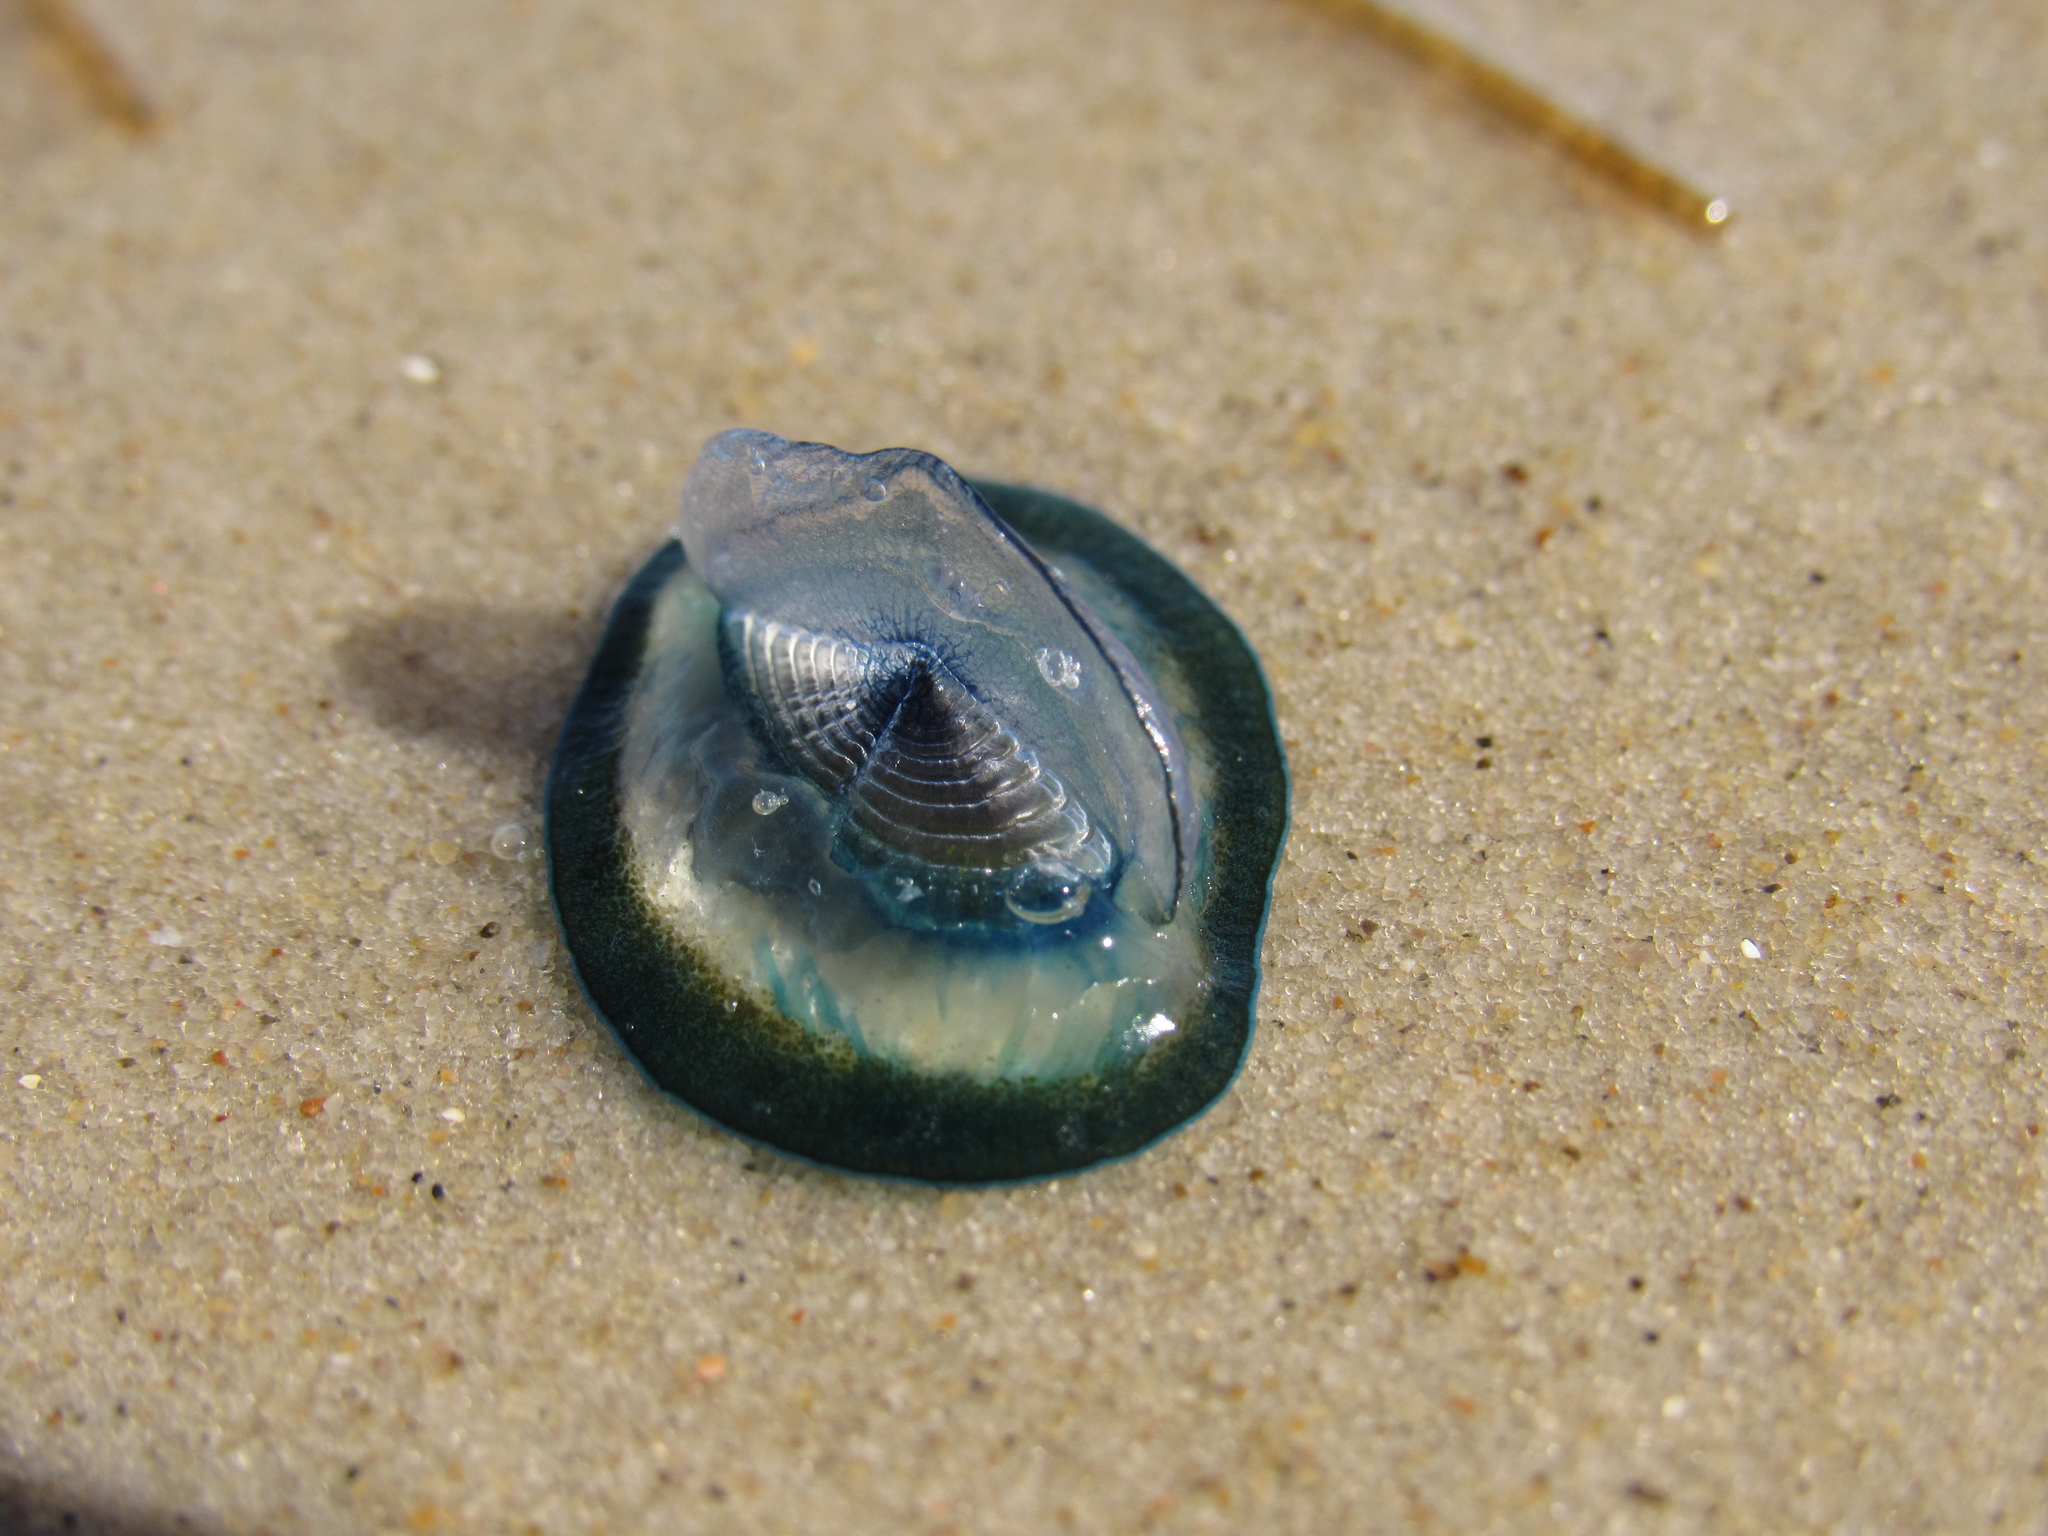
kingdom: Animalia
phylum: Cnidaria
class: Hydrozoa
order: Anthoathecata
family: Porpitidae
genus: Velella
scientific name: Velella velella
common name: By-the-wind-sailor
